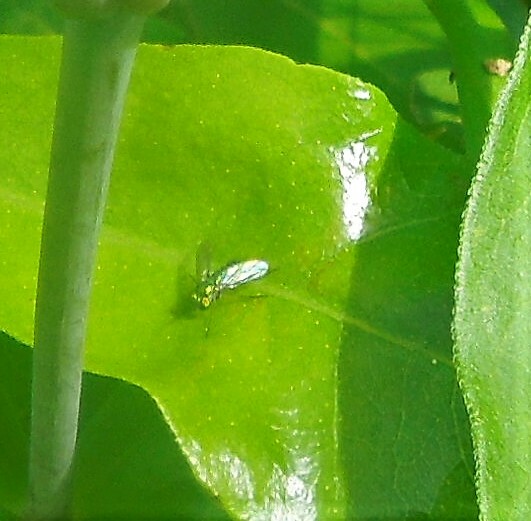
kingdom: Animalia
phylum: Arthropoda
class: Insecta
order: Diptera
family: Dolichopodidae
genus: Condylostylus
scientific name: Condylostylus
